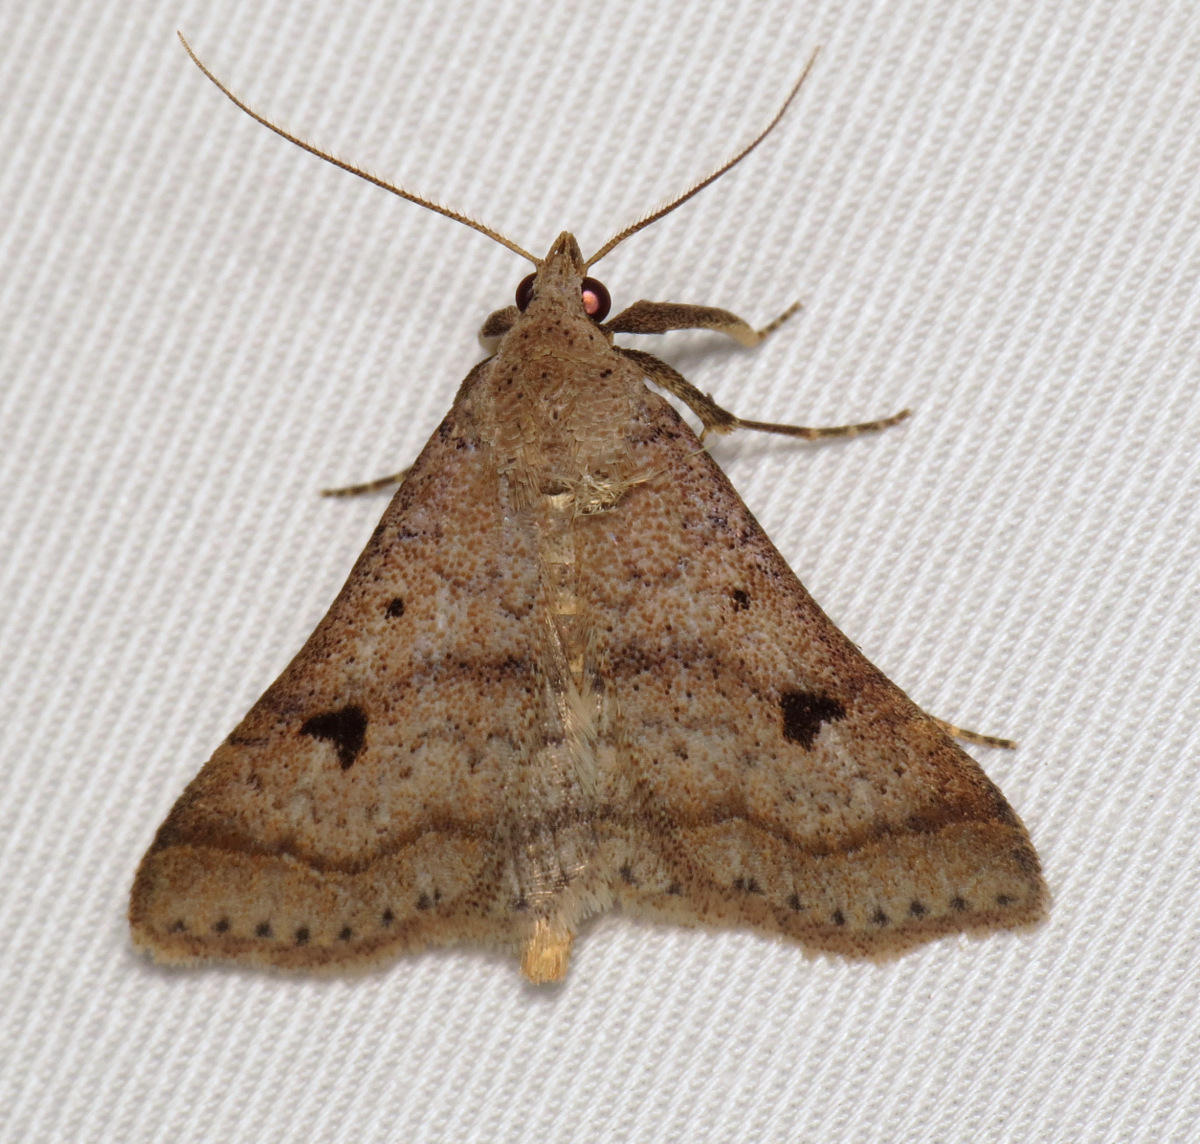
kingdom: Animalia
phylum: Arthropoda
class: Insecta
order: Lepidoptera
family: Erebidae
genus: Bleptina
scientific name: Bleptina caradrinalis
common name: Bent-winged owlet
